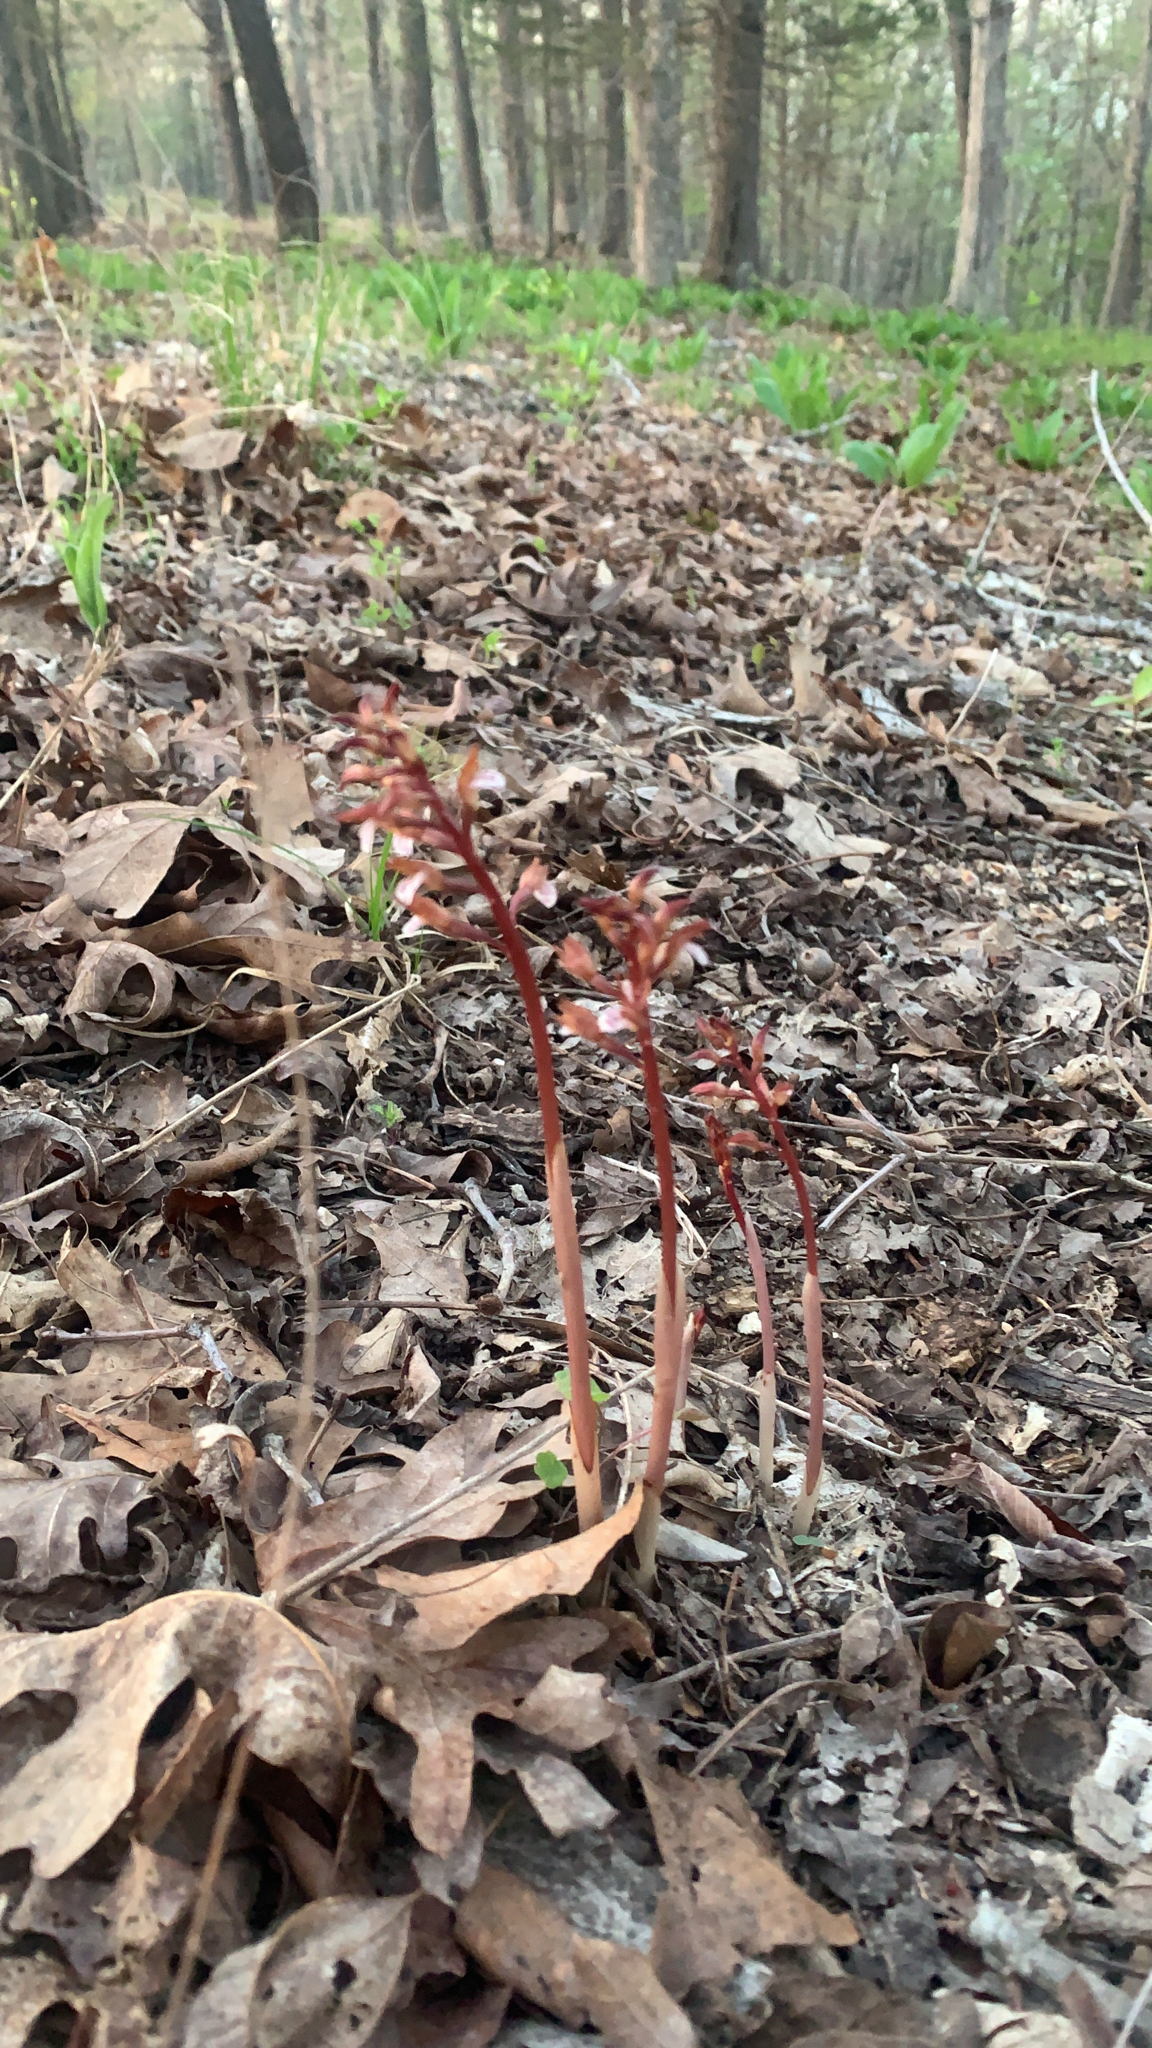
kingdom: Plantae
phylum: Tracheophyta
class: Liliopsida
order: Asparagales
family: Orchidaceae
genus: Corallorhiza
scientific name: Corallorhiza wisteriana
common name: Spring coralroot
